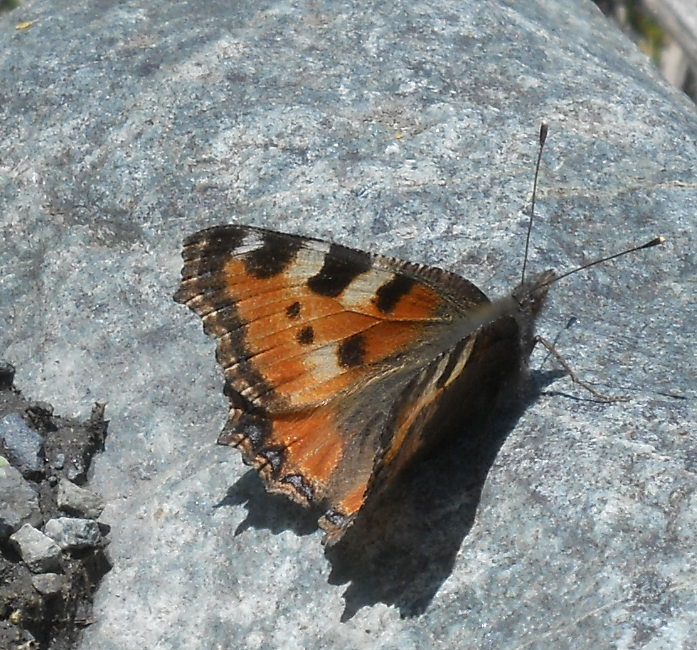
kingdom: Animalia
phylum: Arthropoda
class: Insecta
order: Lepidoptera
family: Nymphalidae
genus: Aglais
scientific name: Aglais urticae
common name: Small tortoiseshell
